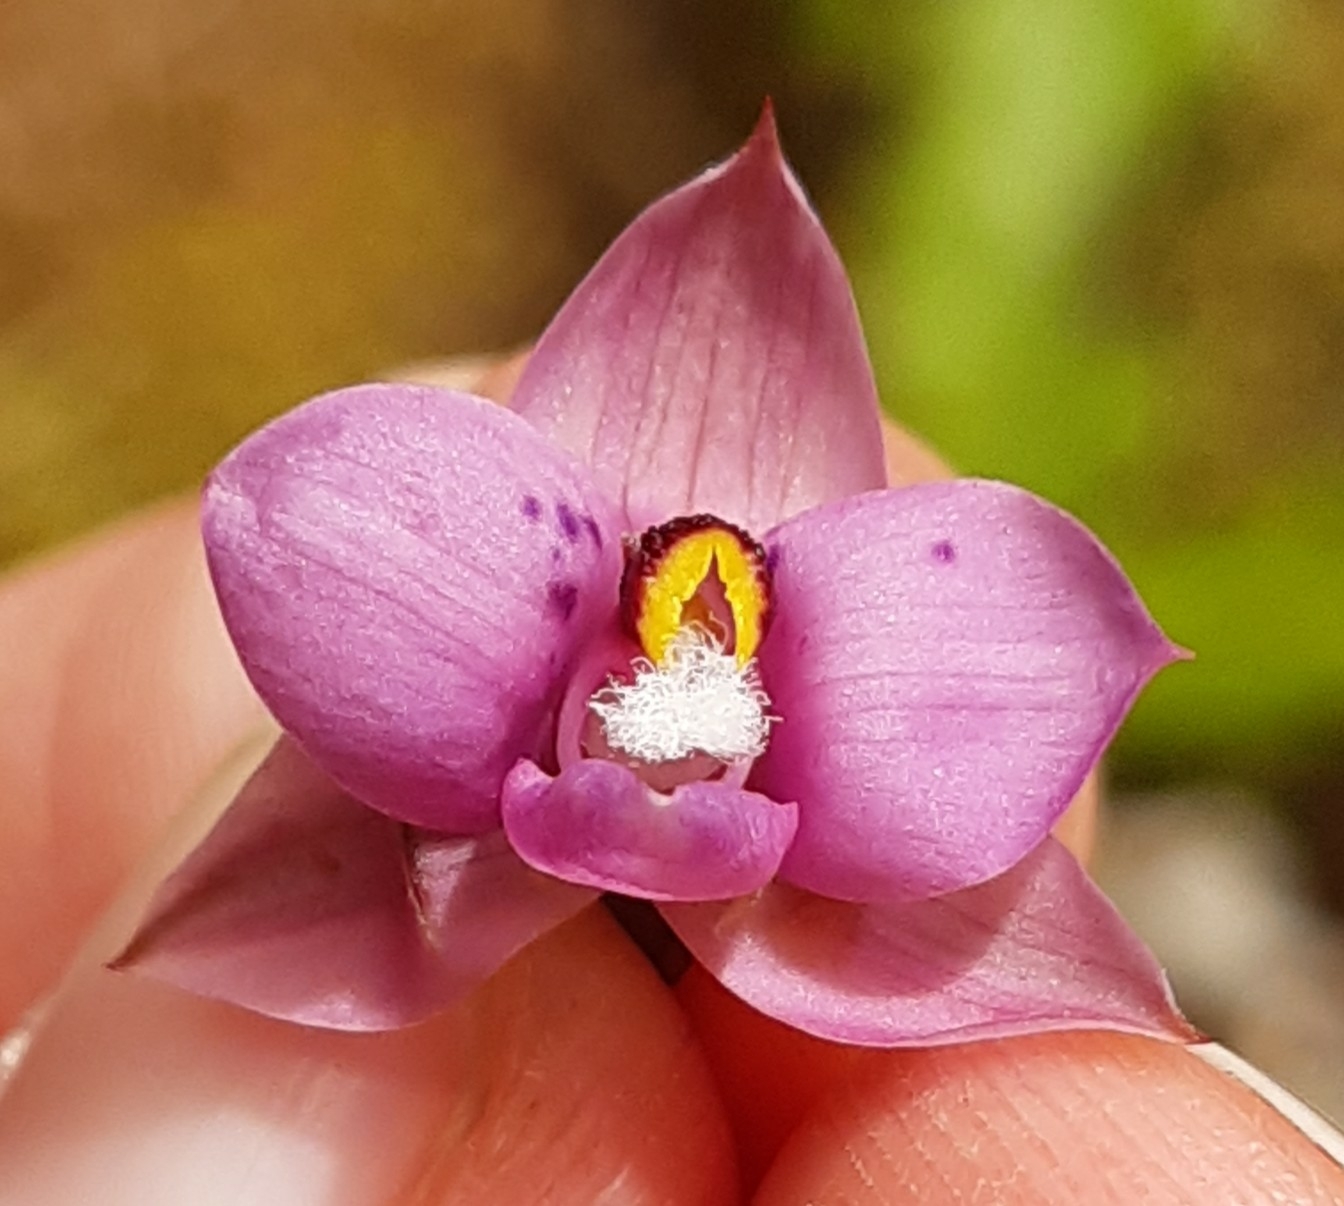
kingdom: Plantae
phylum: Tracheophyta
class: Liliopsida
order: Asparagales
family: Orchidaceae
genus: Thelymitra
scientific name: Thelymitra nervosa
